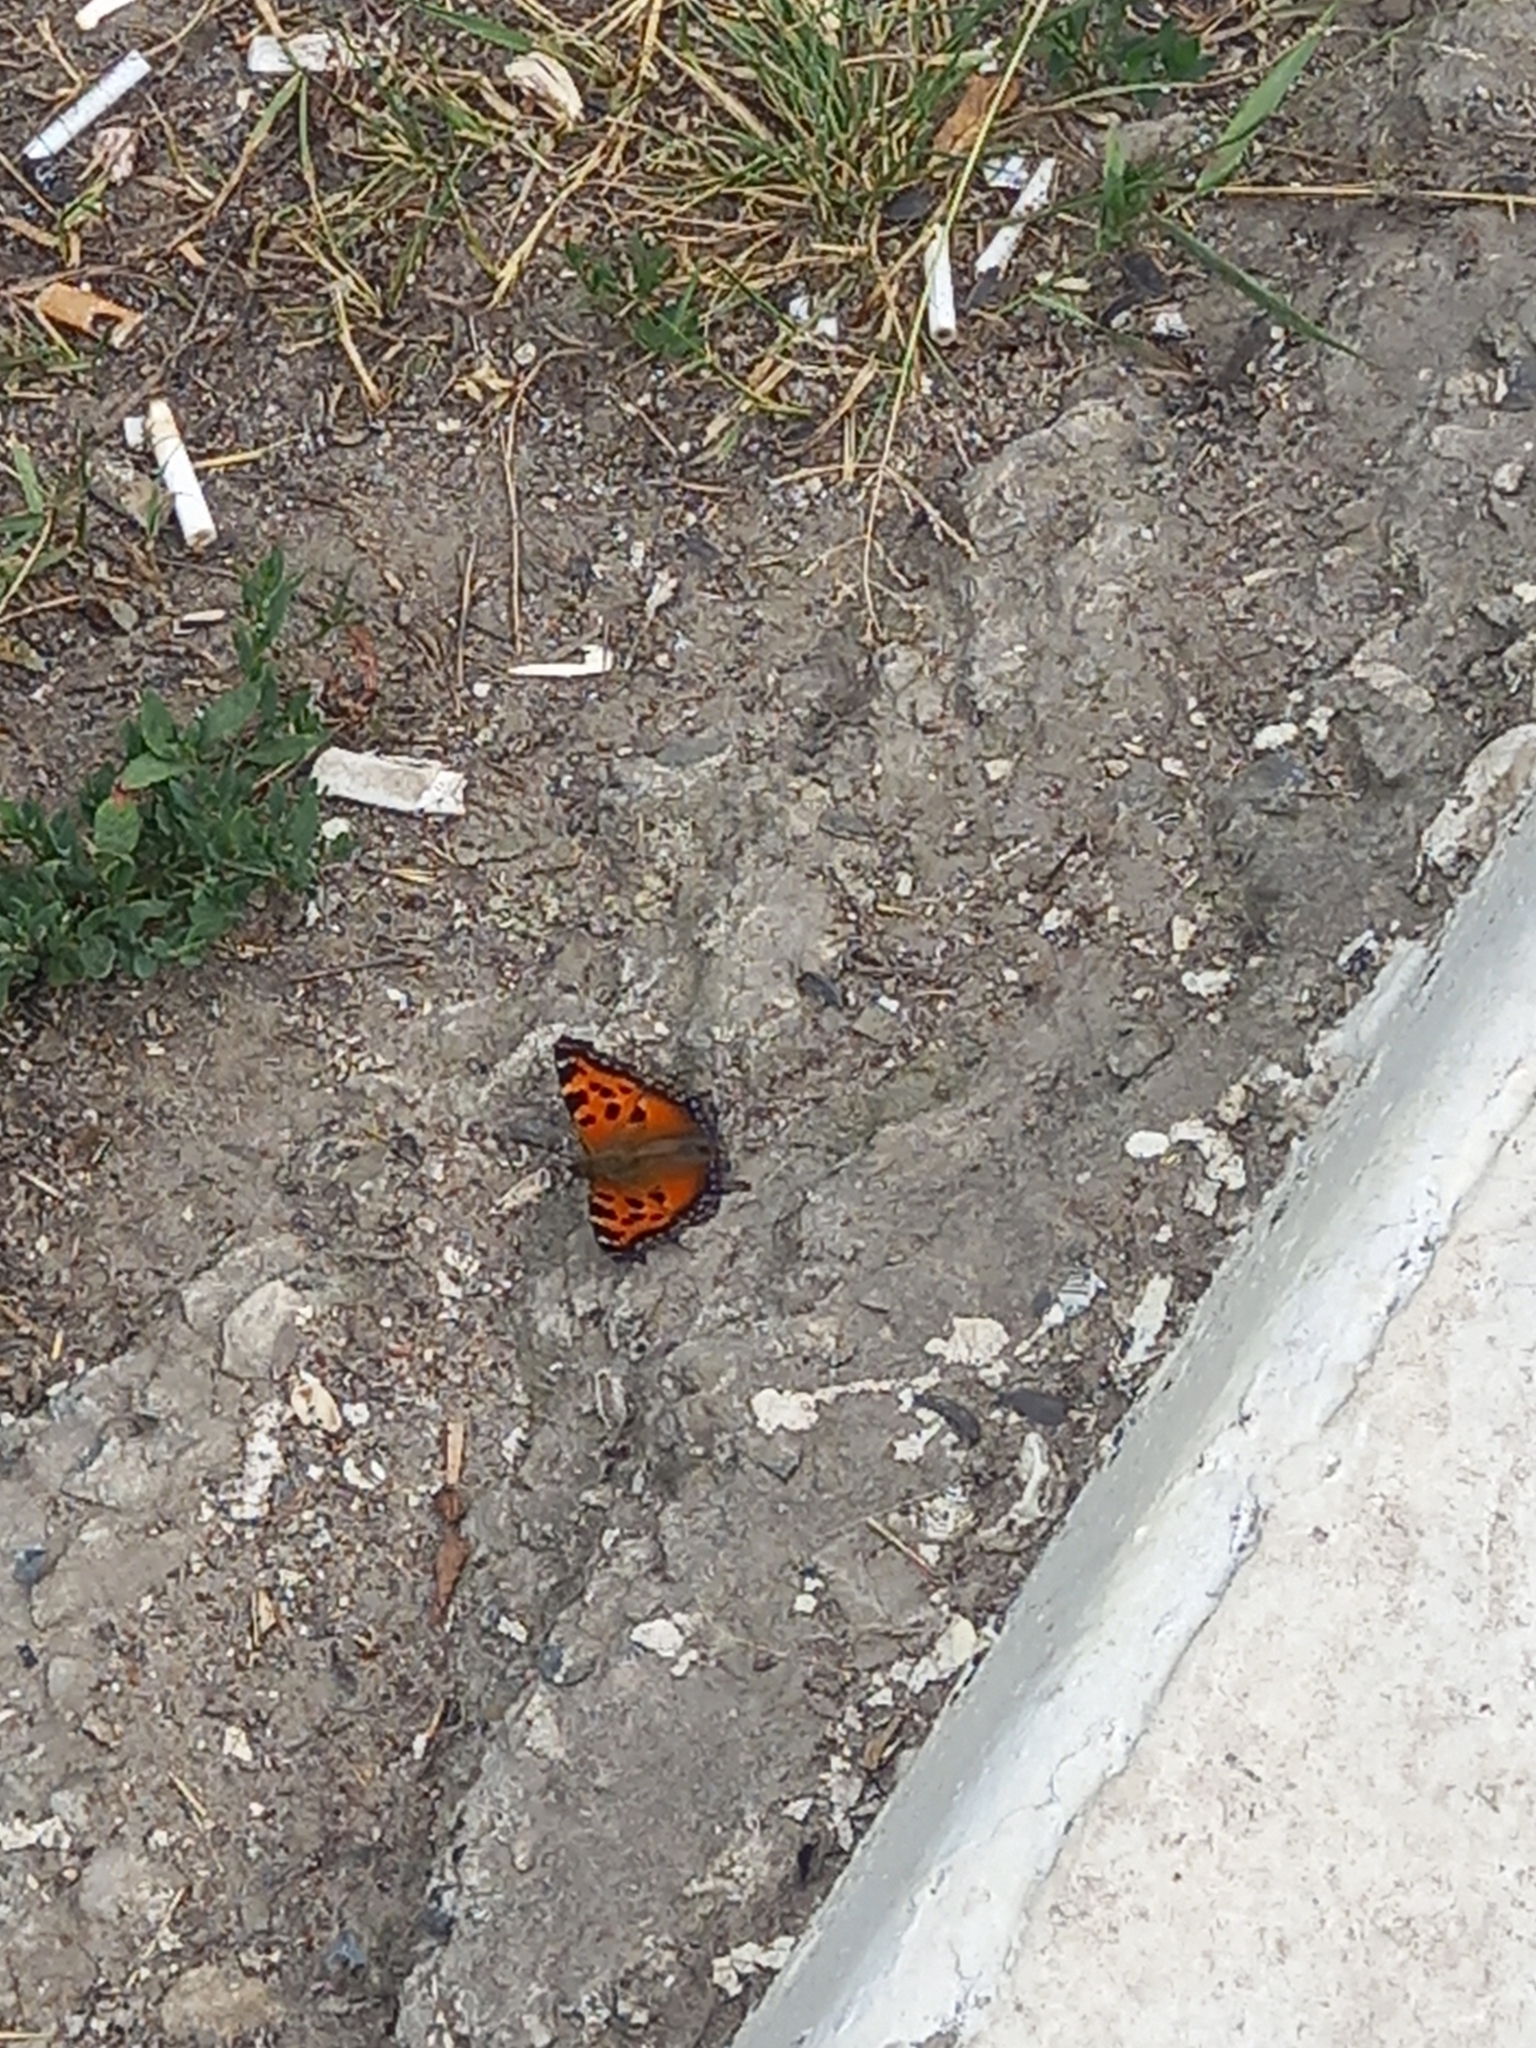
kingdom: Animalia
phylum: Arthropoda
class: Insecta
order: Lepidoptera
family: Nymphalidae
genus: Nymphalis
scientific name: Nymphalis xanthomelas
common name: Scarce tortoiseshell
